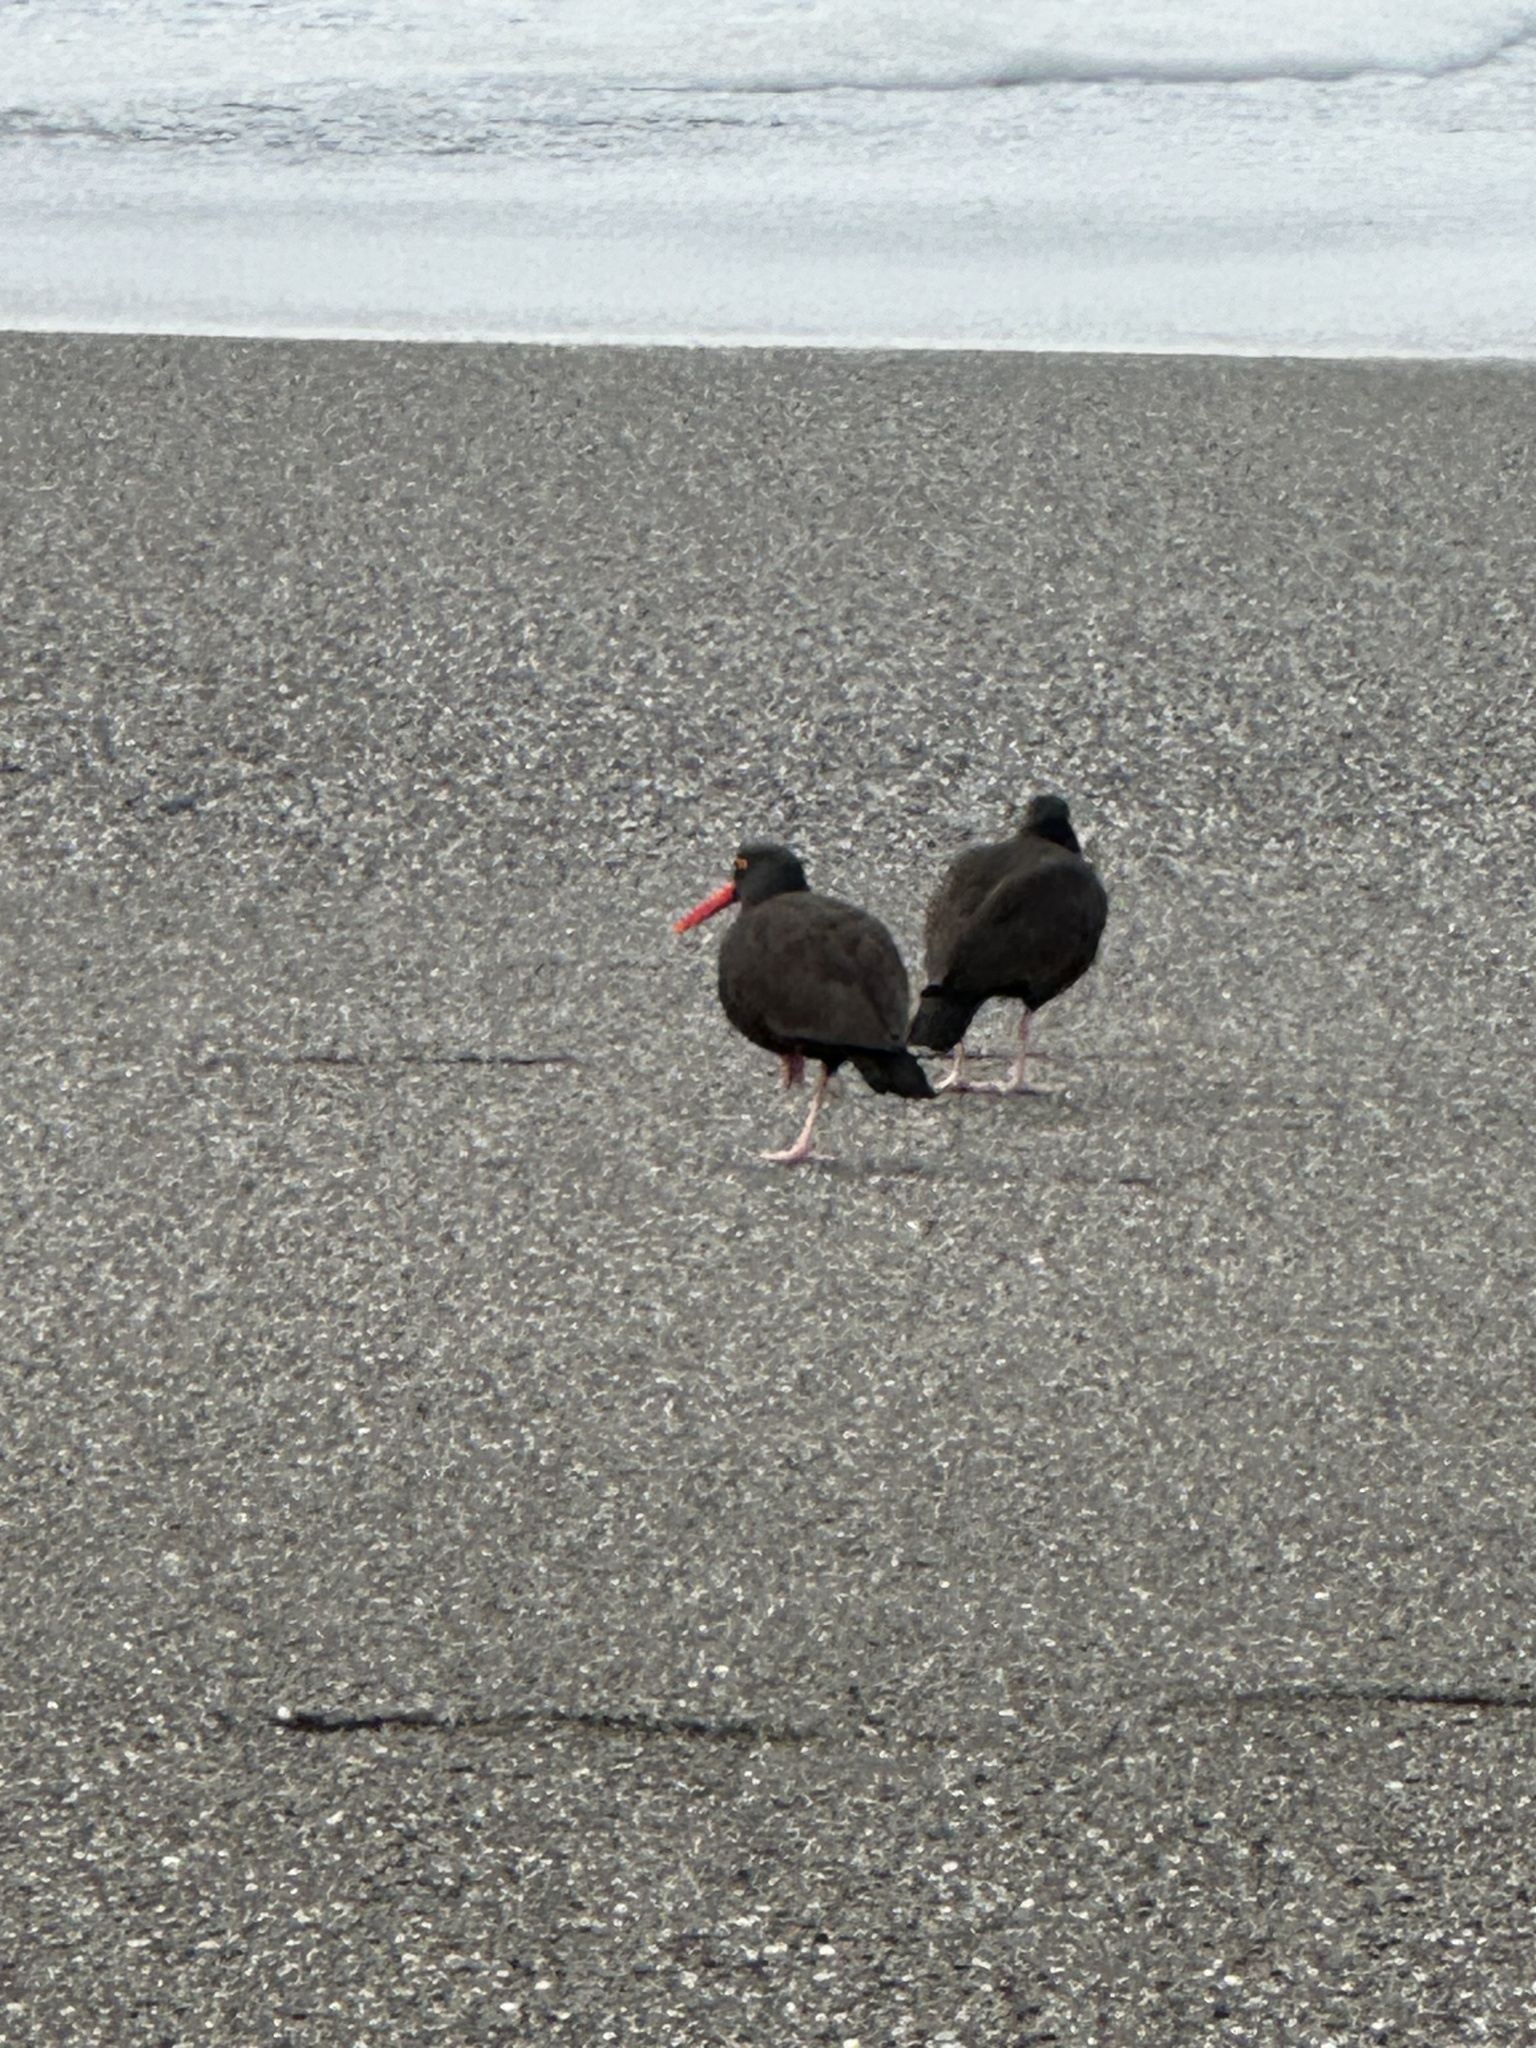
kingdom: Animalia
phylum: Chordata
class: Aves
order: Charadriiformes
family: Haematopodidae
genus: Haematopus
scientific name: Haematopus bachmani
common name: Black oystercatcher
